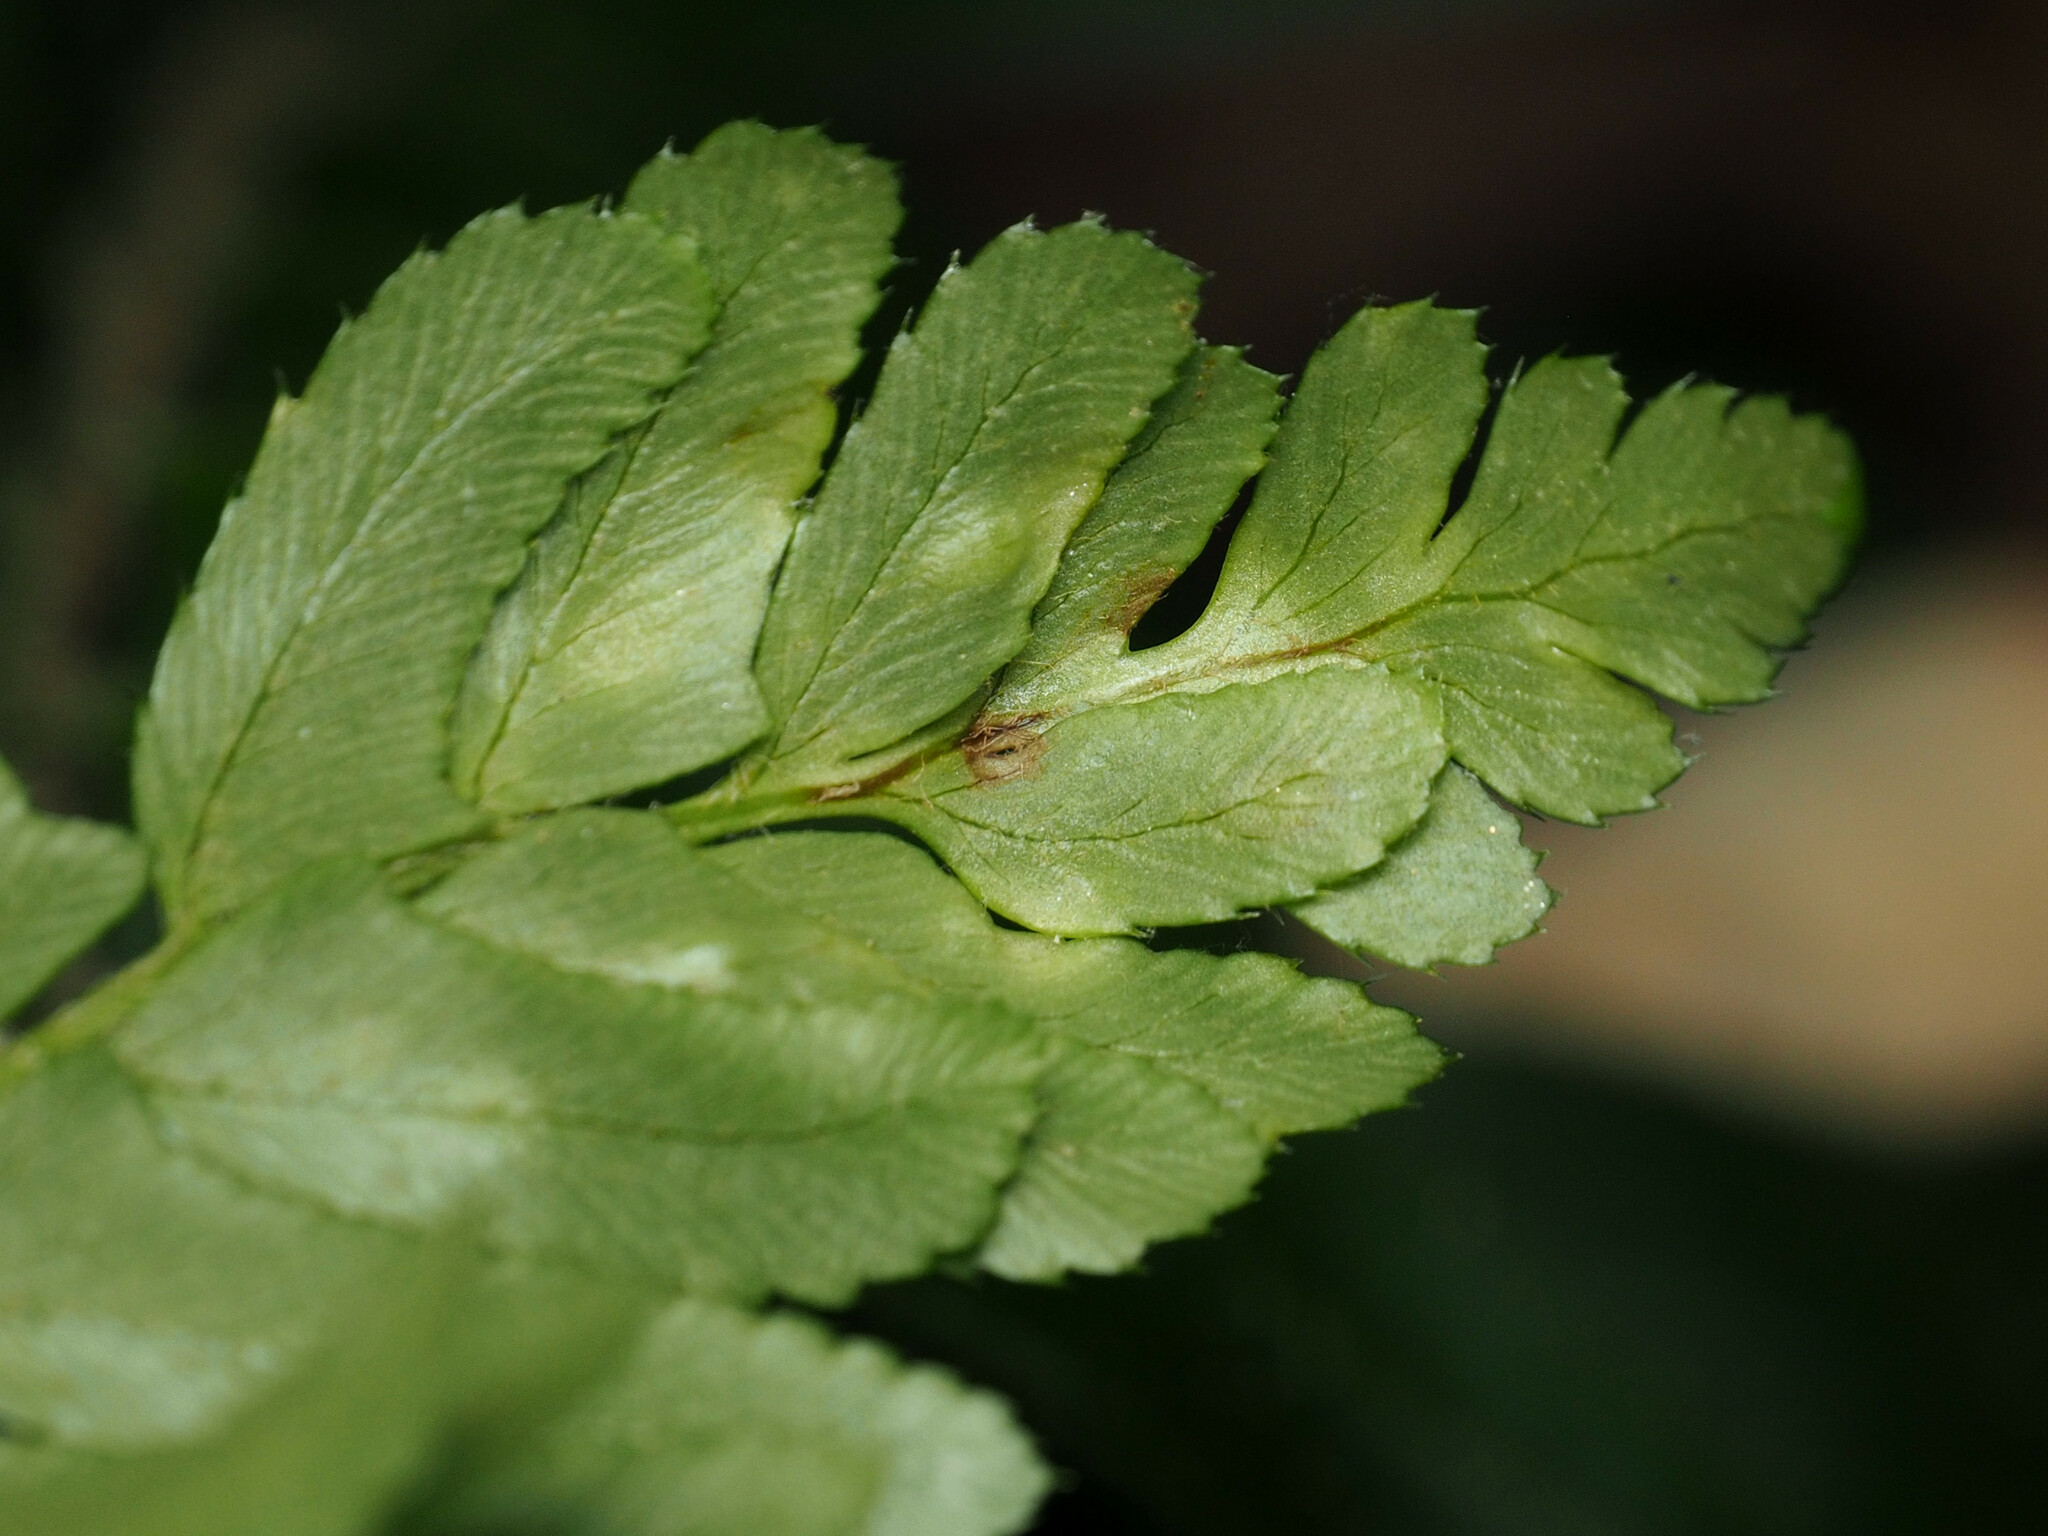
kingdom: Fungi
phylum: Ascomycota
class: Taphrinomycetes
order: Taphrinales
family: Taphrinaceae
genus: Taphrina
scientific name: Taphrina polystichi
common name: Christmas fern leaf curl
